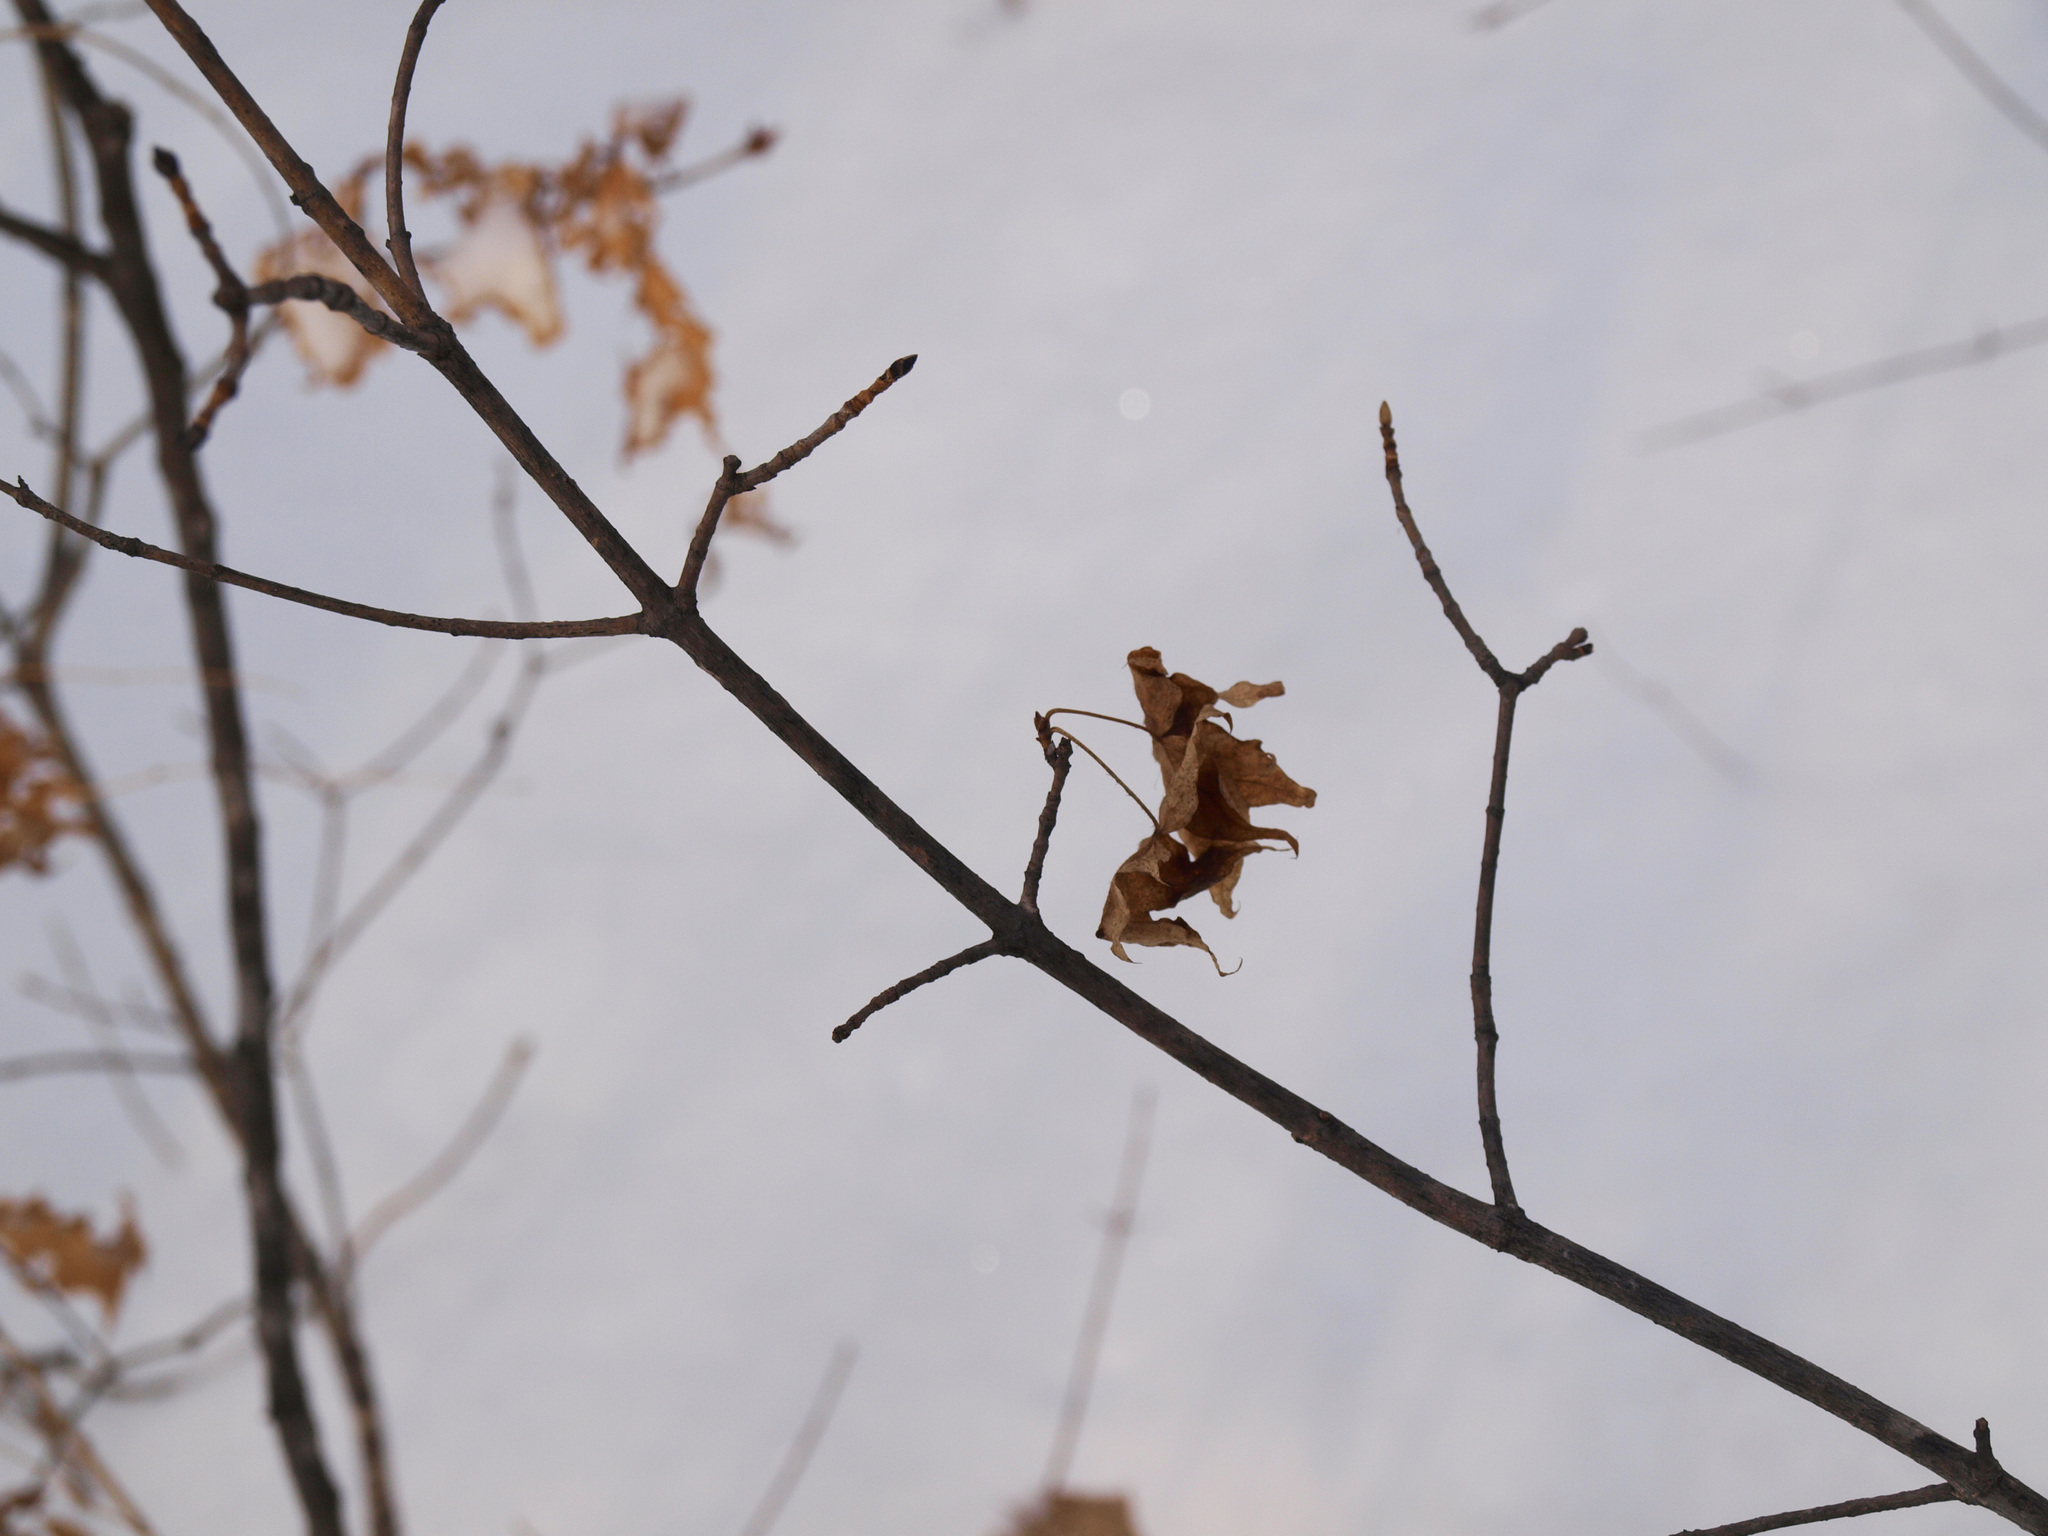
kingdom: Plantae
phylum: Tracheophyta
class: Magnoliopsida
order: Sapindales
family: Sapindaceae
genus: Acer
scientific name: Acer pictum
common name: The painted maple
